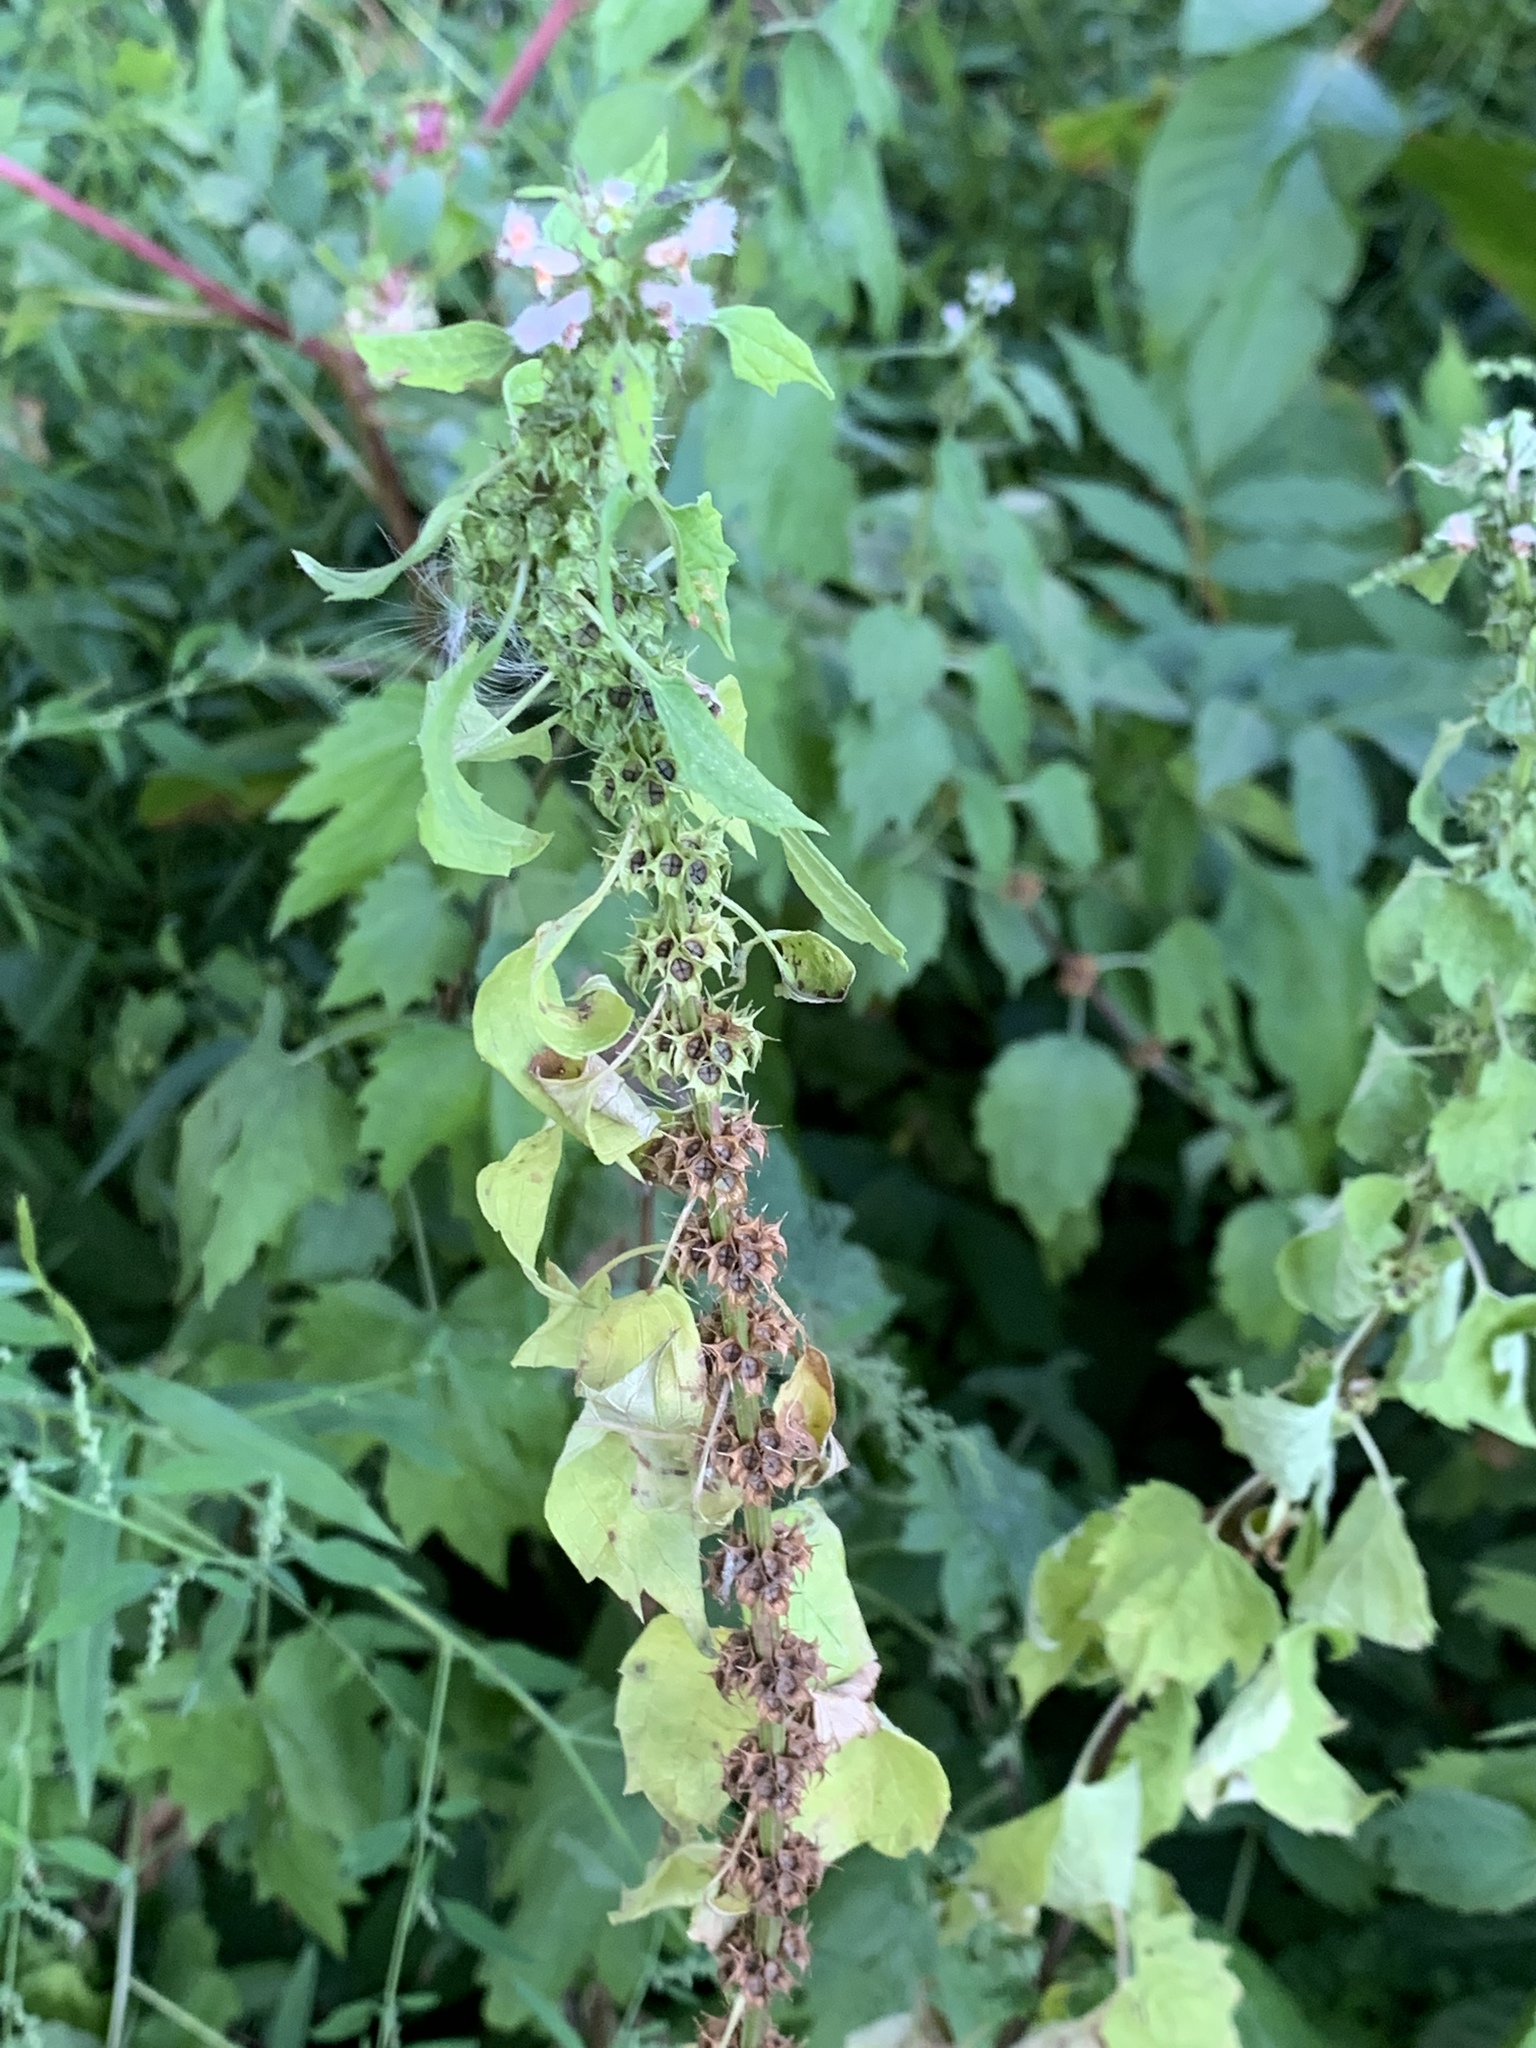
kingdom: Plantae
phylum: Tracheophyta
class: Magnoliopsida
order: Lamiales
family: Lamiaceae
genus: Leonurus
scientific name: Leonurus cardiaca
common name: Motherwort
